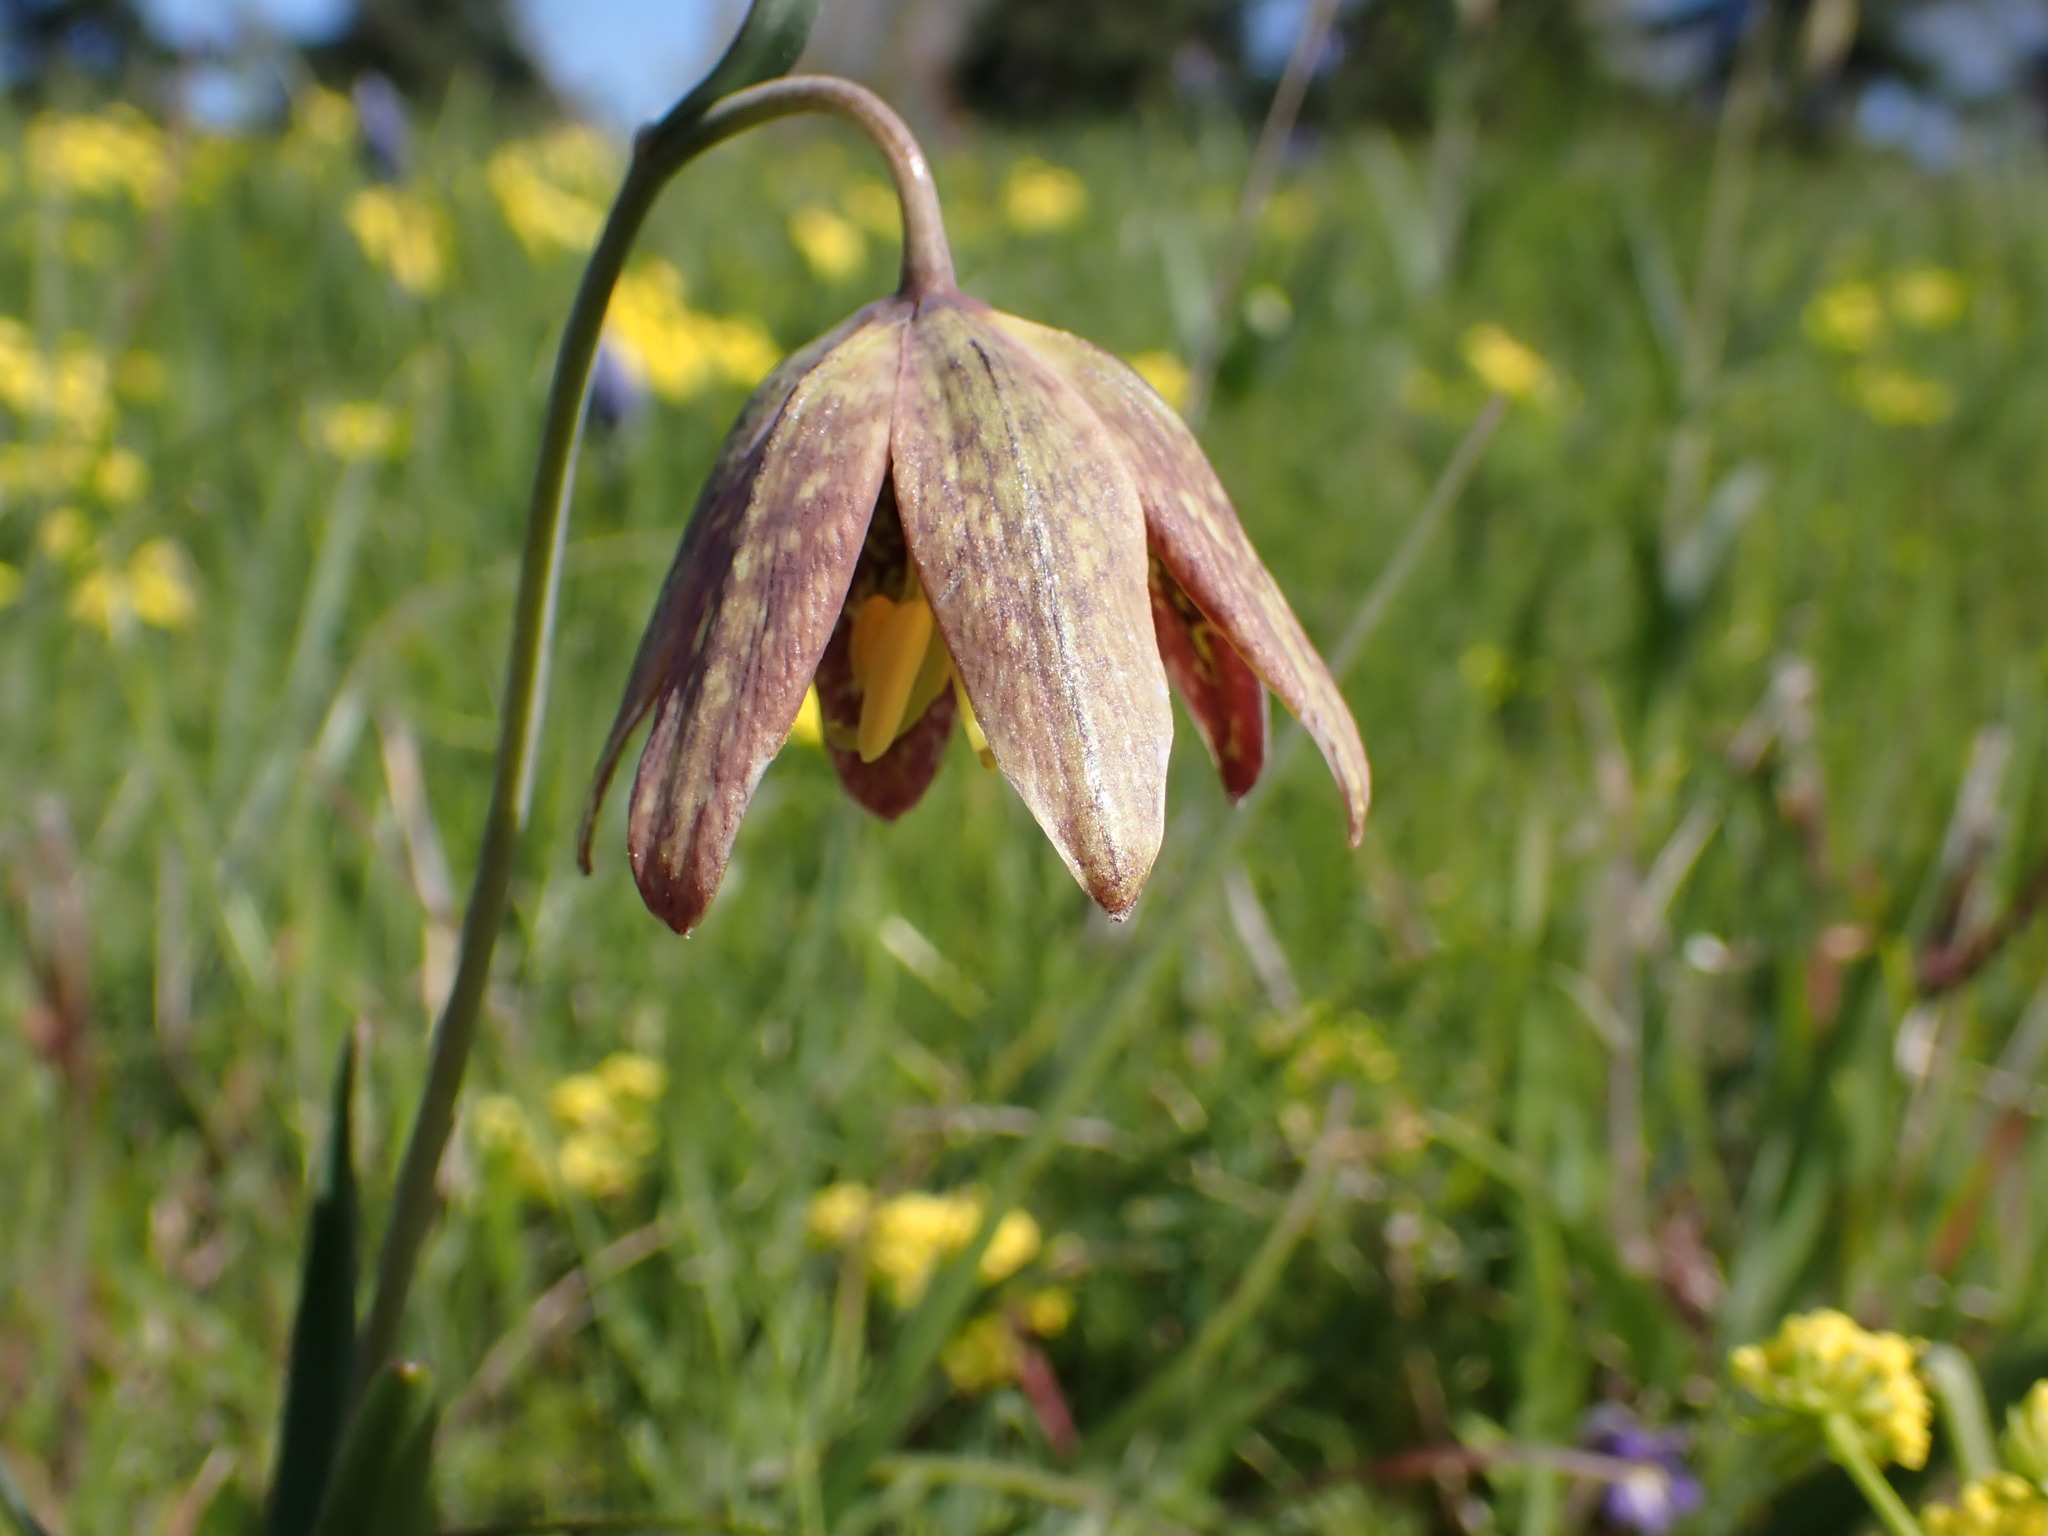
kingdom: Plantae
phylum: Tracheophyta
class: Liliopsida
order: Liliales
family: Liliaceae
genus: Fritillaria
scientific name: Fritillaria affinis
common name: Ojai fritillary
